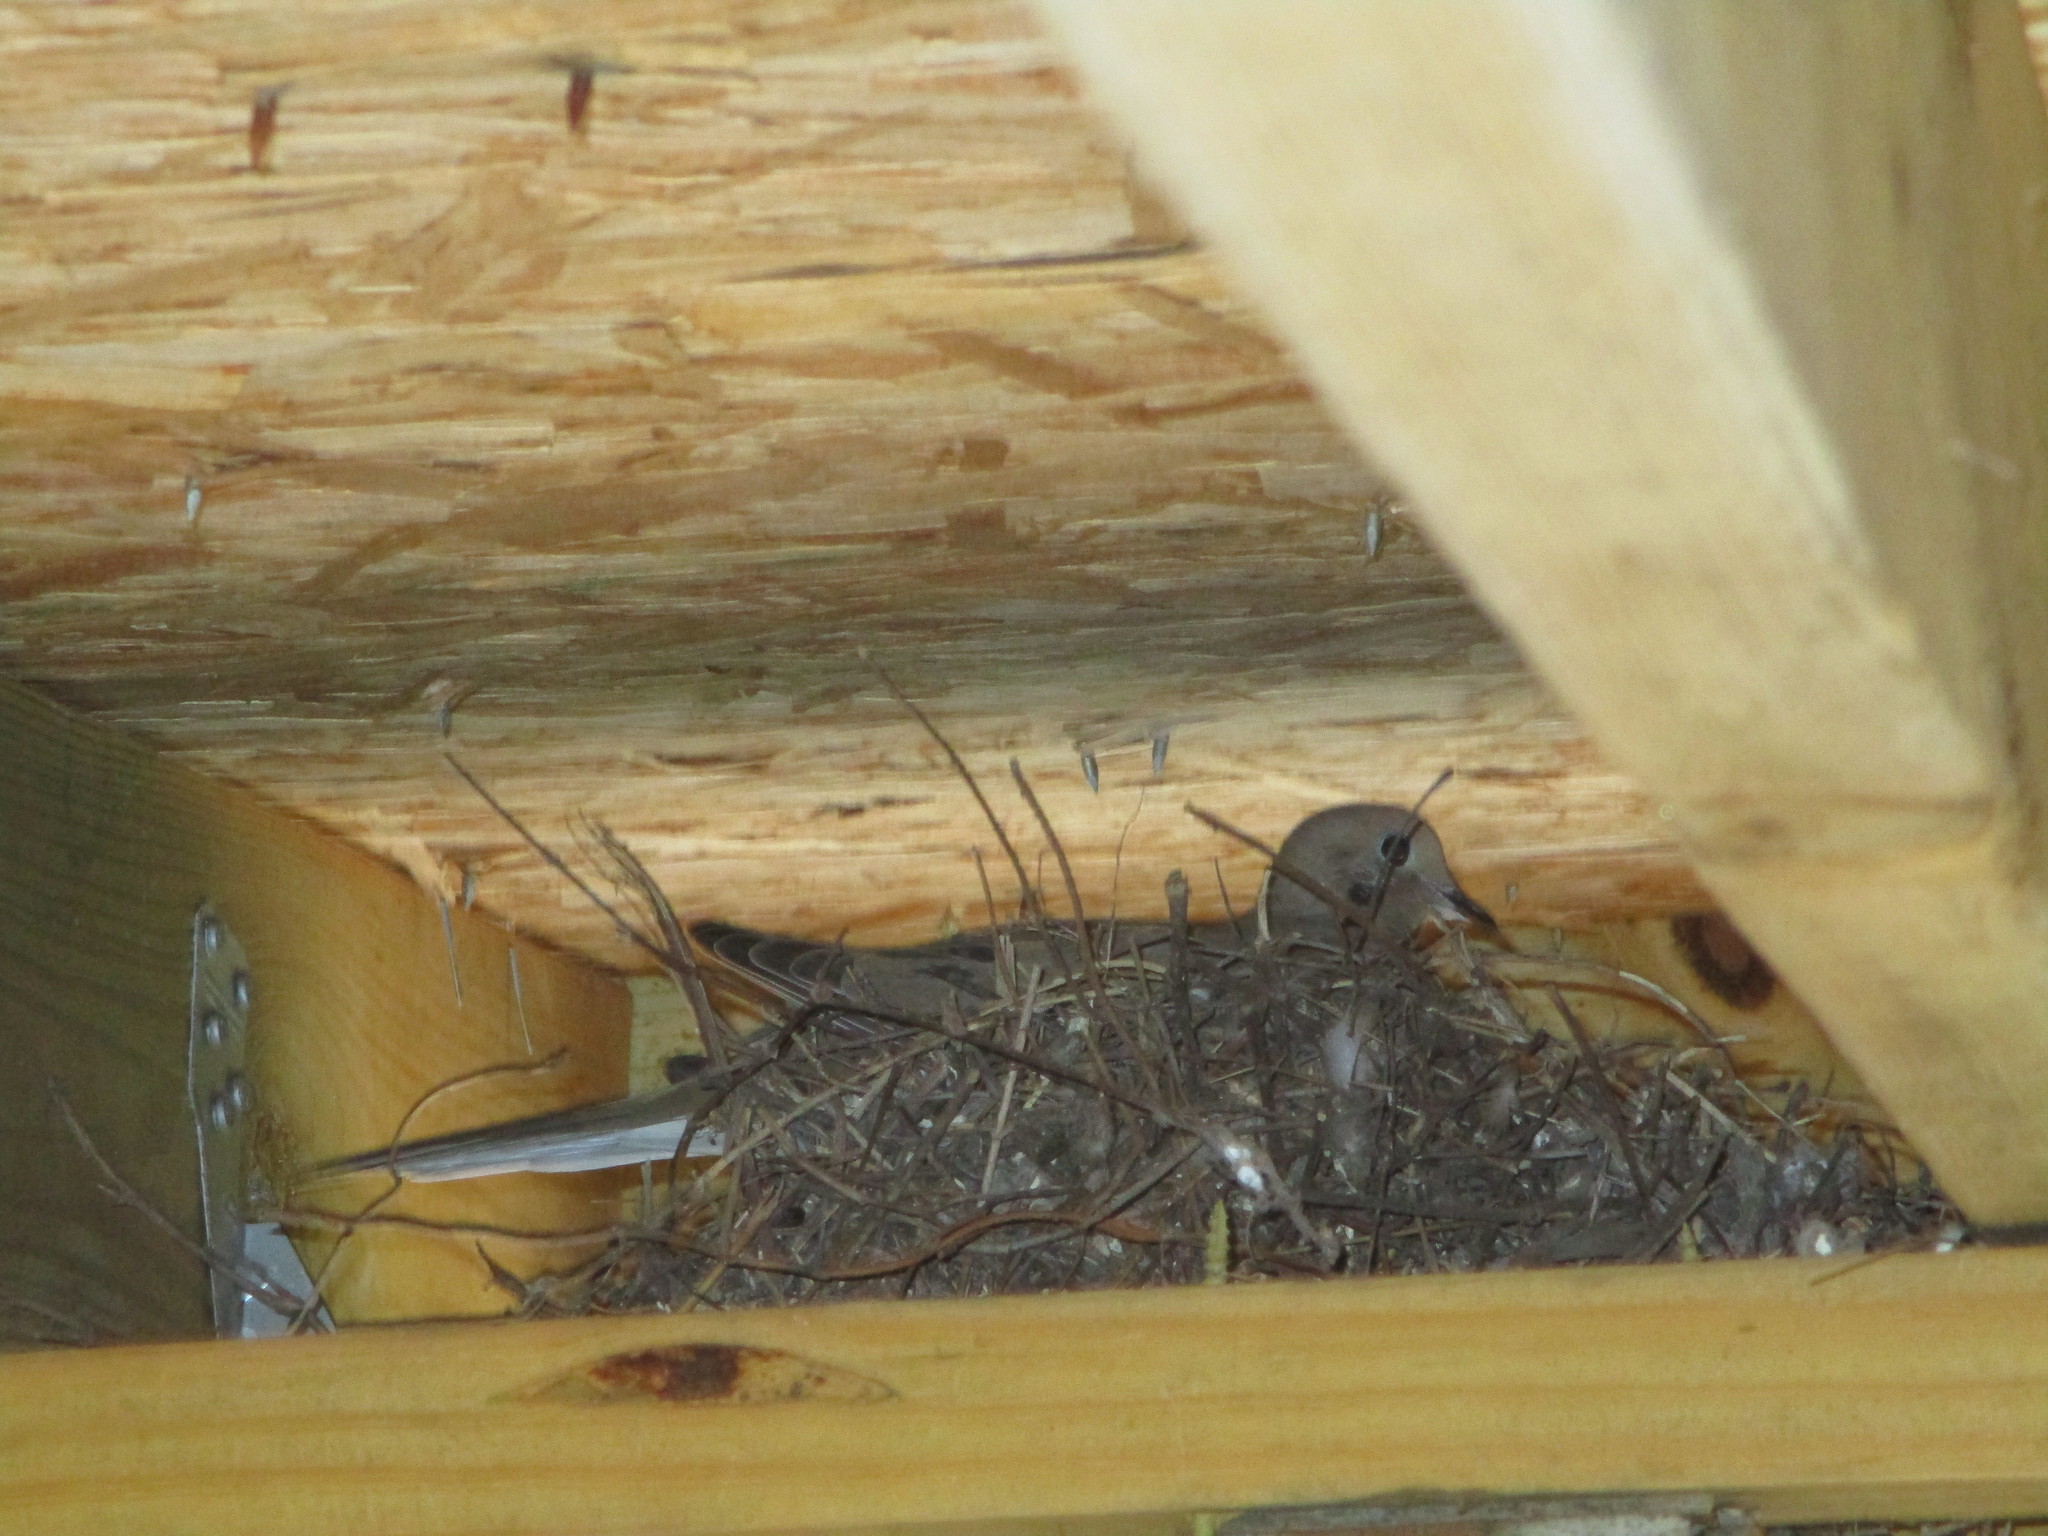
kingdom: Animalia
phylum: Chordata
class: Aves
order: Columbiformes
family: Columbidae
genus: Zenaida
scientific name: Zenaida macroura
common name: Mourning dove
